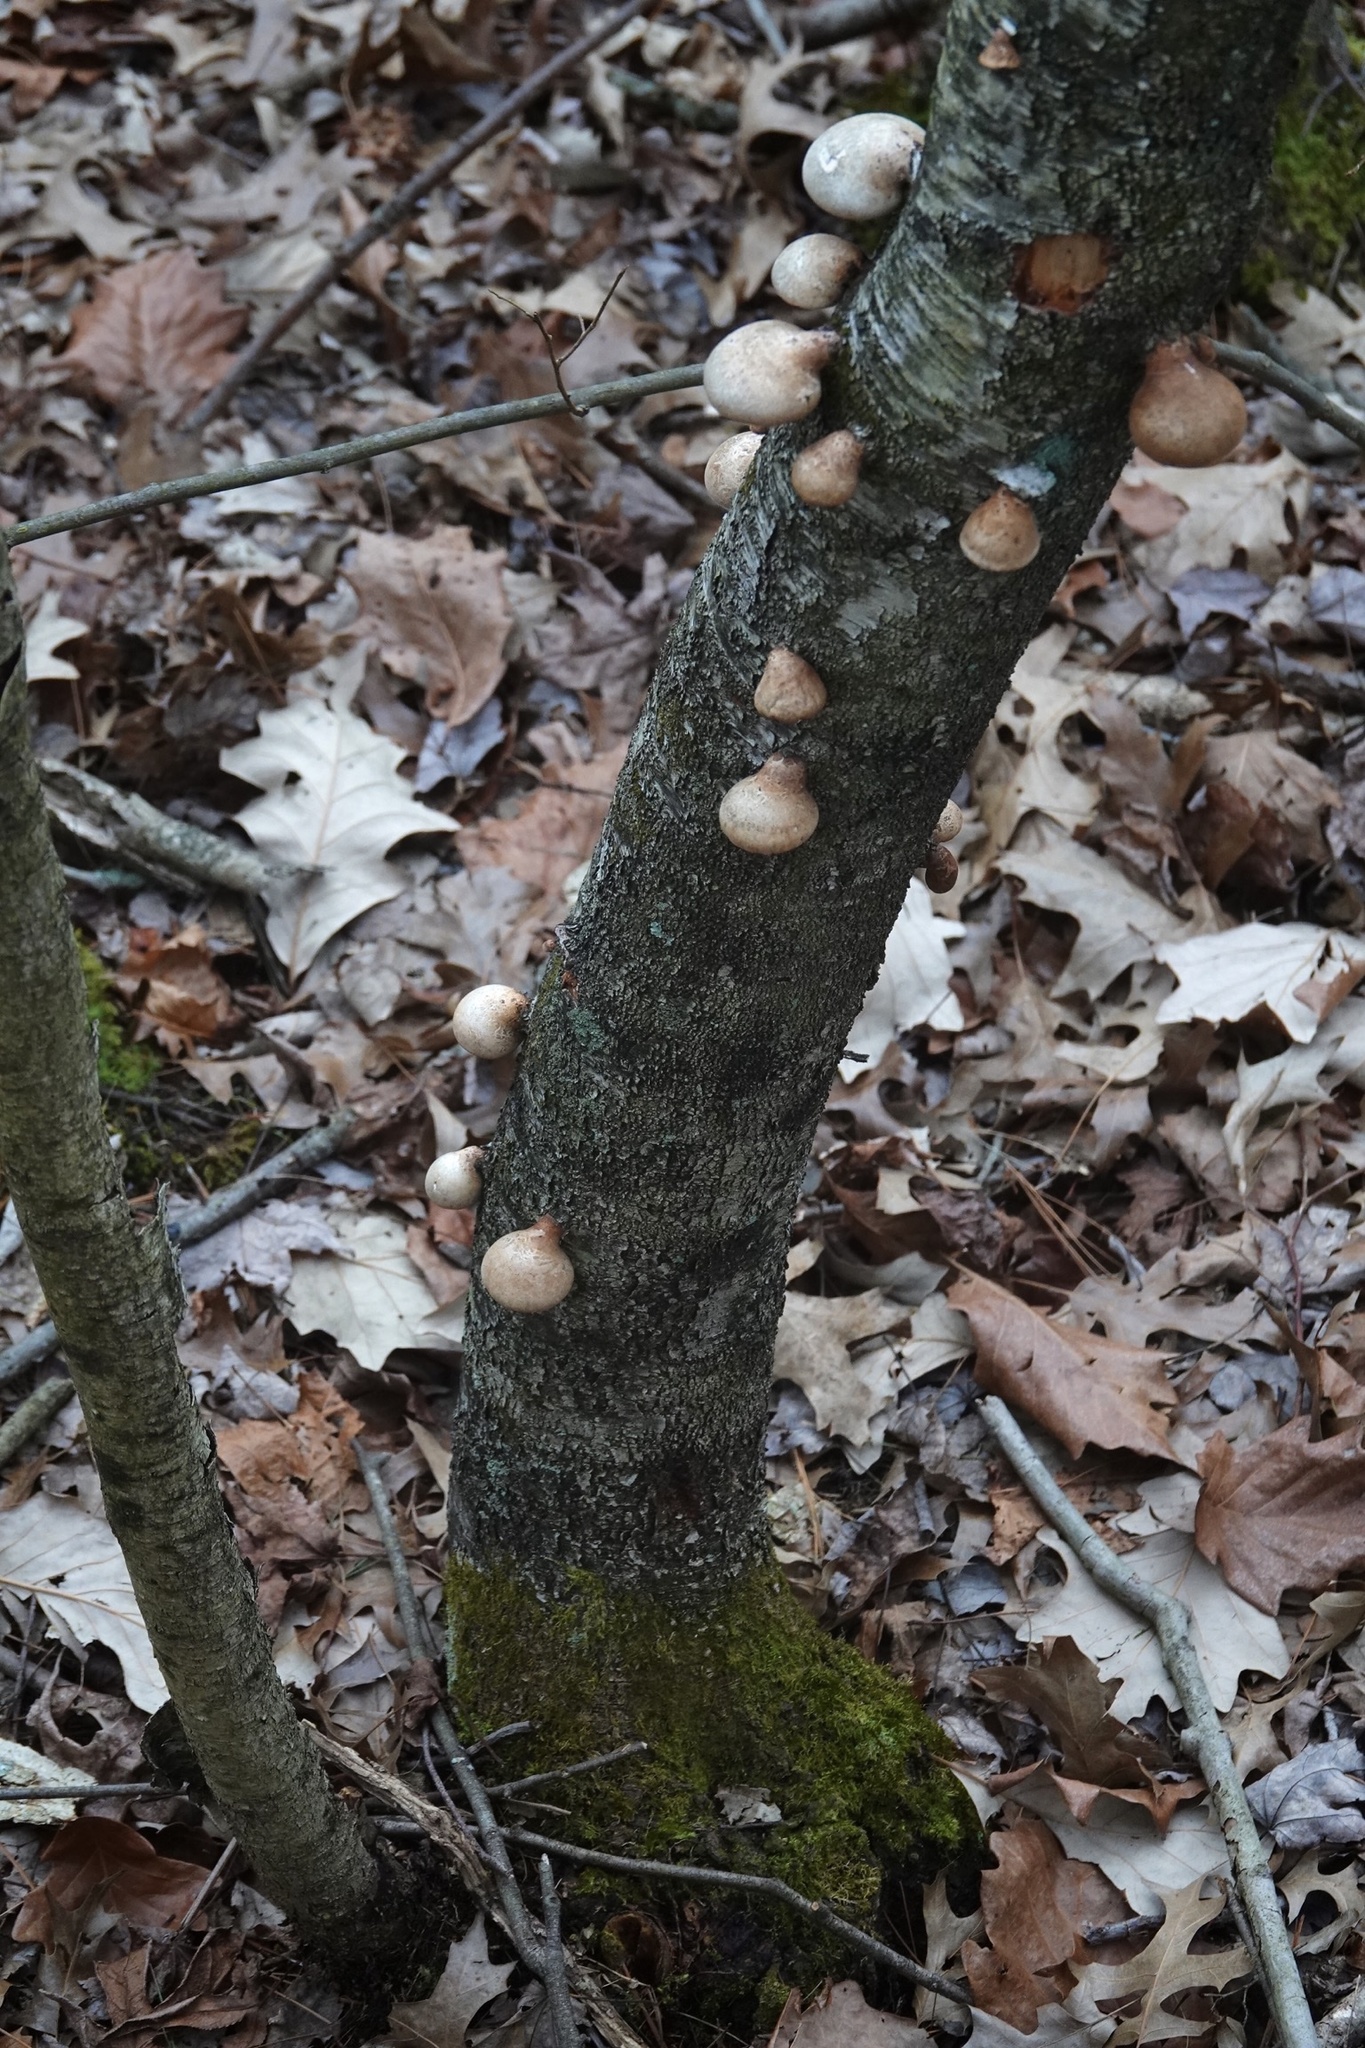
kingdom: Fungi
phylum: Basidiomycota
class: Agaricomycetes
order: Polyporales
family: Fomitopsidaceae
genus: Fomitopsis
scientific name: Fomitopsis betulina
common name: Birch polypore
